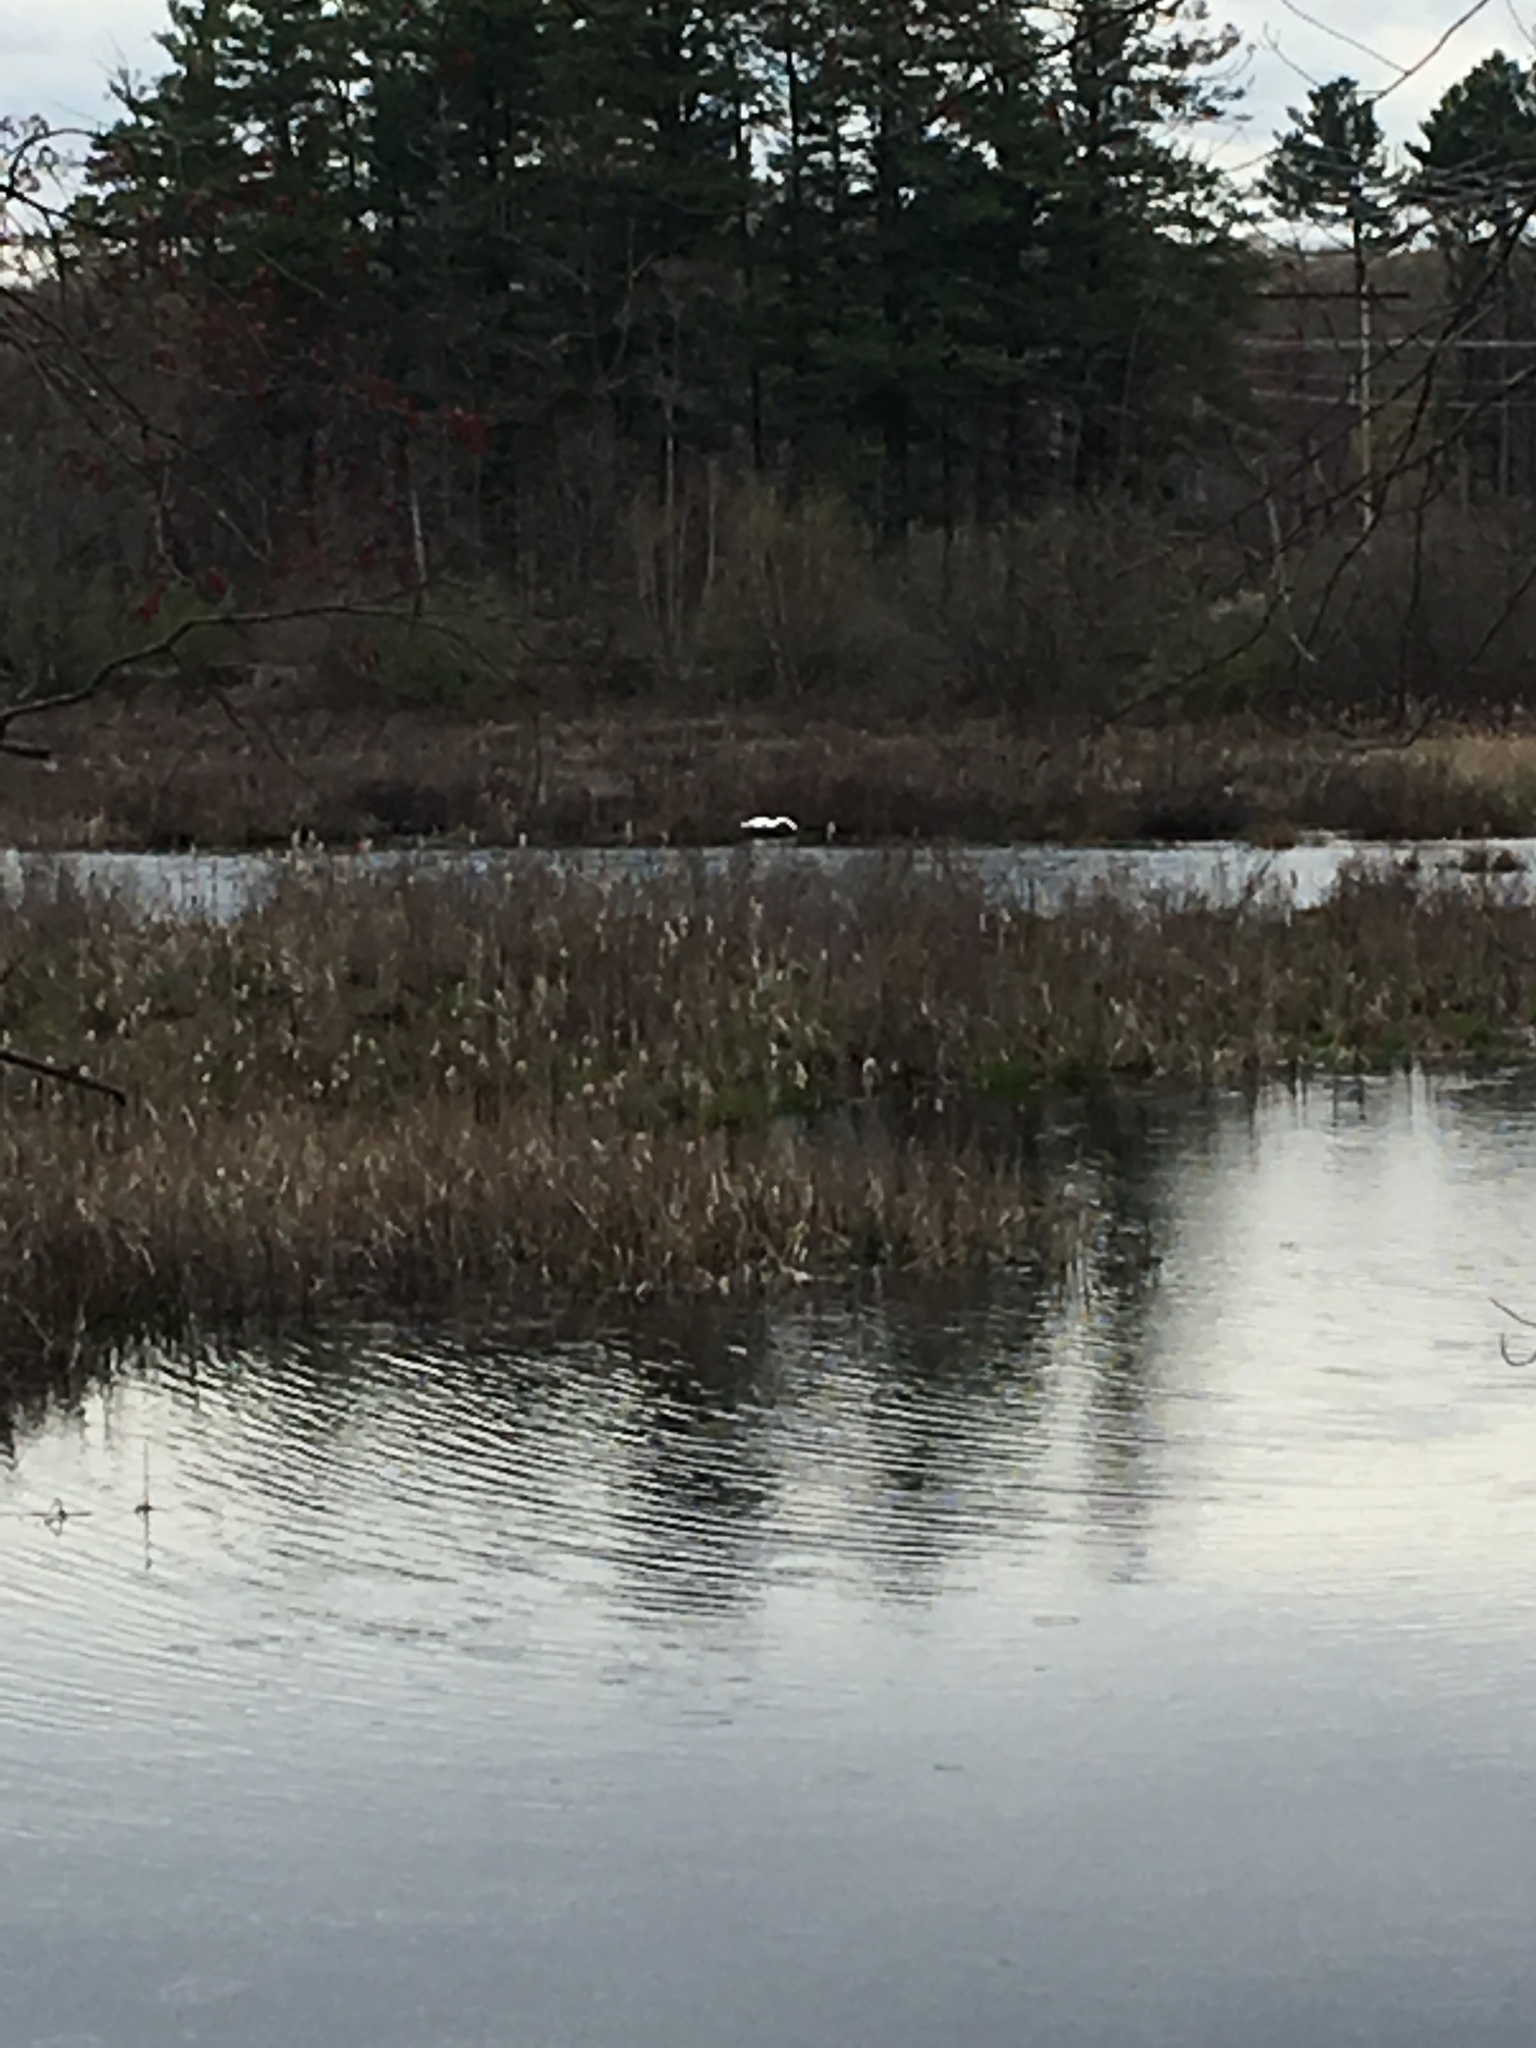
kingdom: Animalia
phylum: Chordata
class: Aves
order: Anseriformes
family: Anatidae
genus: Cygnus
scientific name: Cygnus olor
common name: Mute swan
